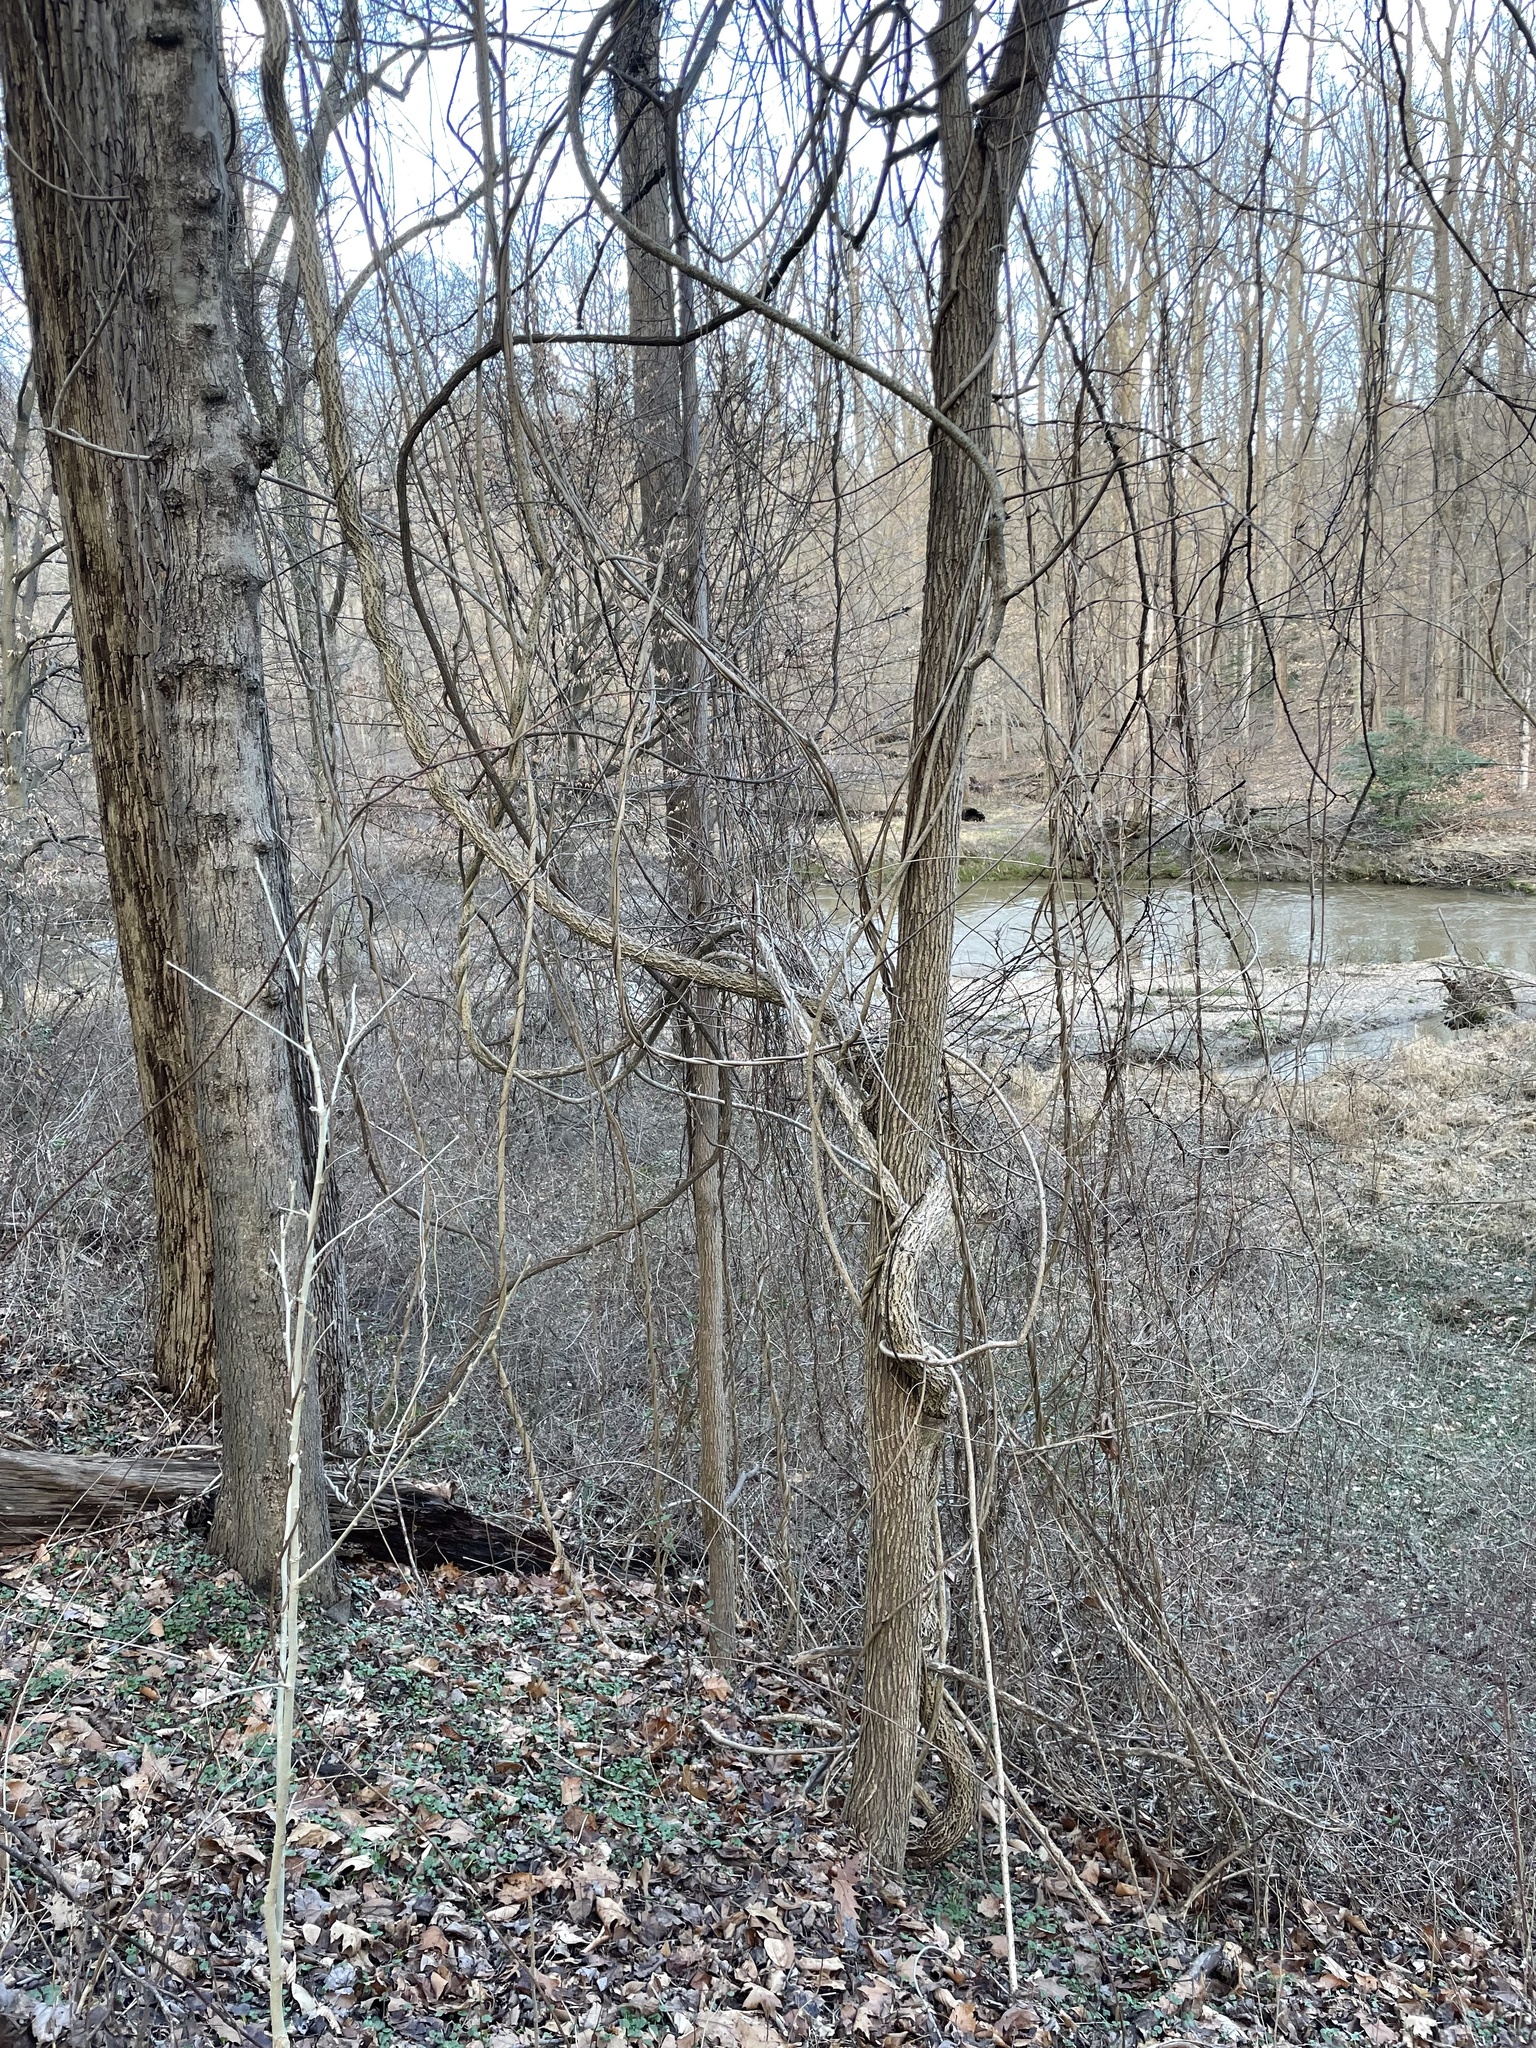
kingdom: Plantae
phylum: Tracheophyta
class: Magnoliopsida
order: Celastrales
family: Celastraceae
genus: Celastrus
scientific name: Celastrus orbiculatus
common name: Oriental bittersweet
